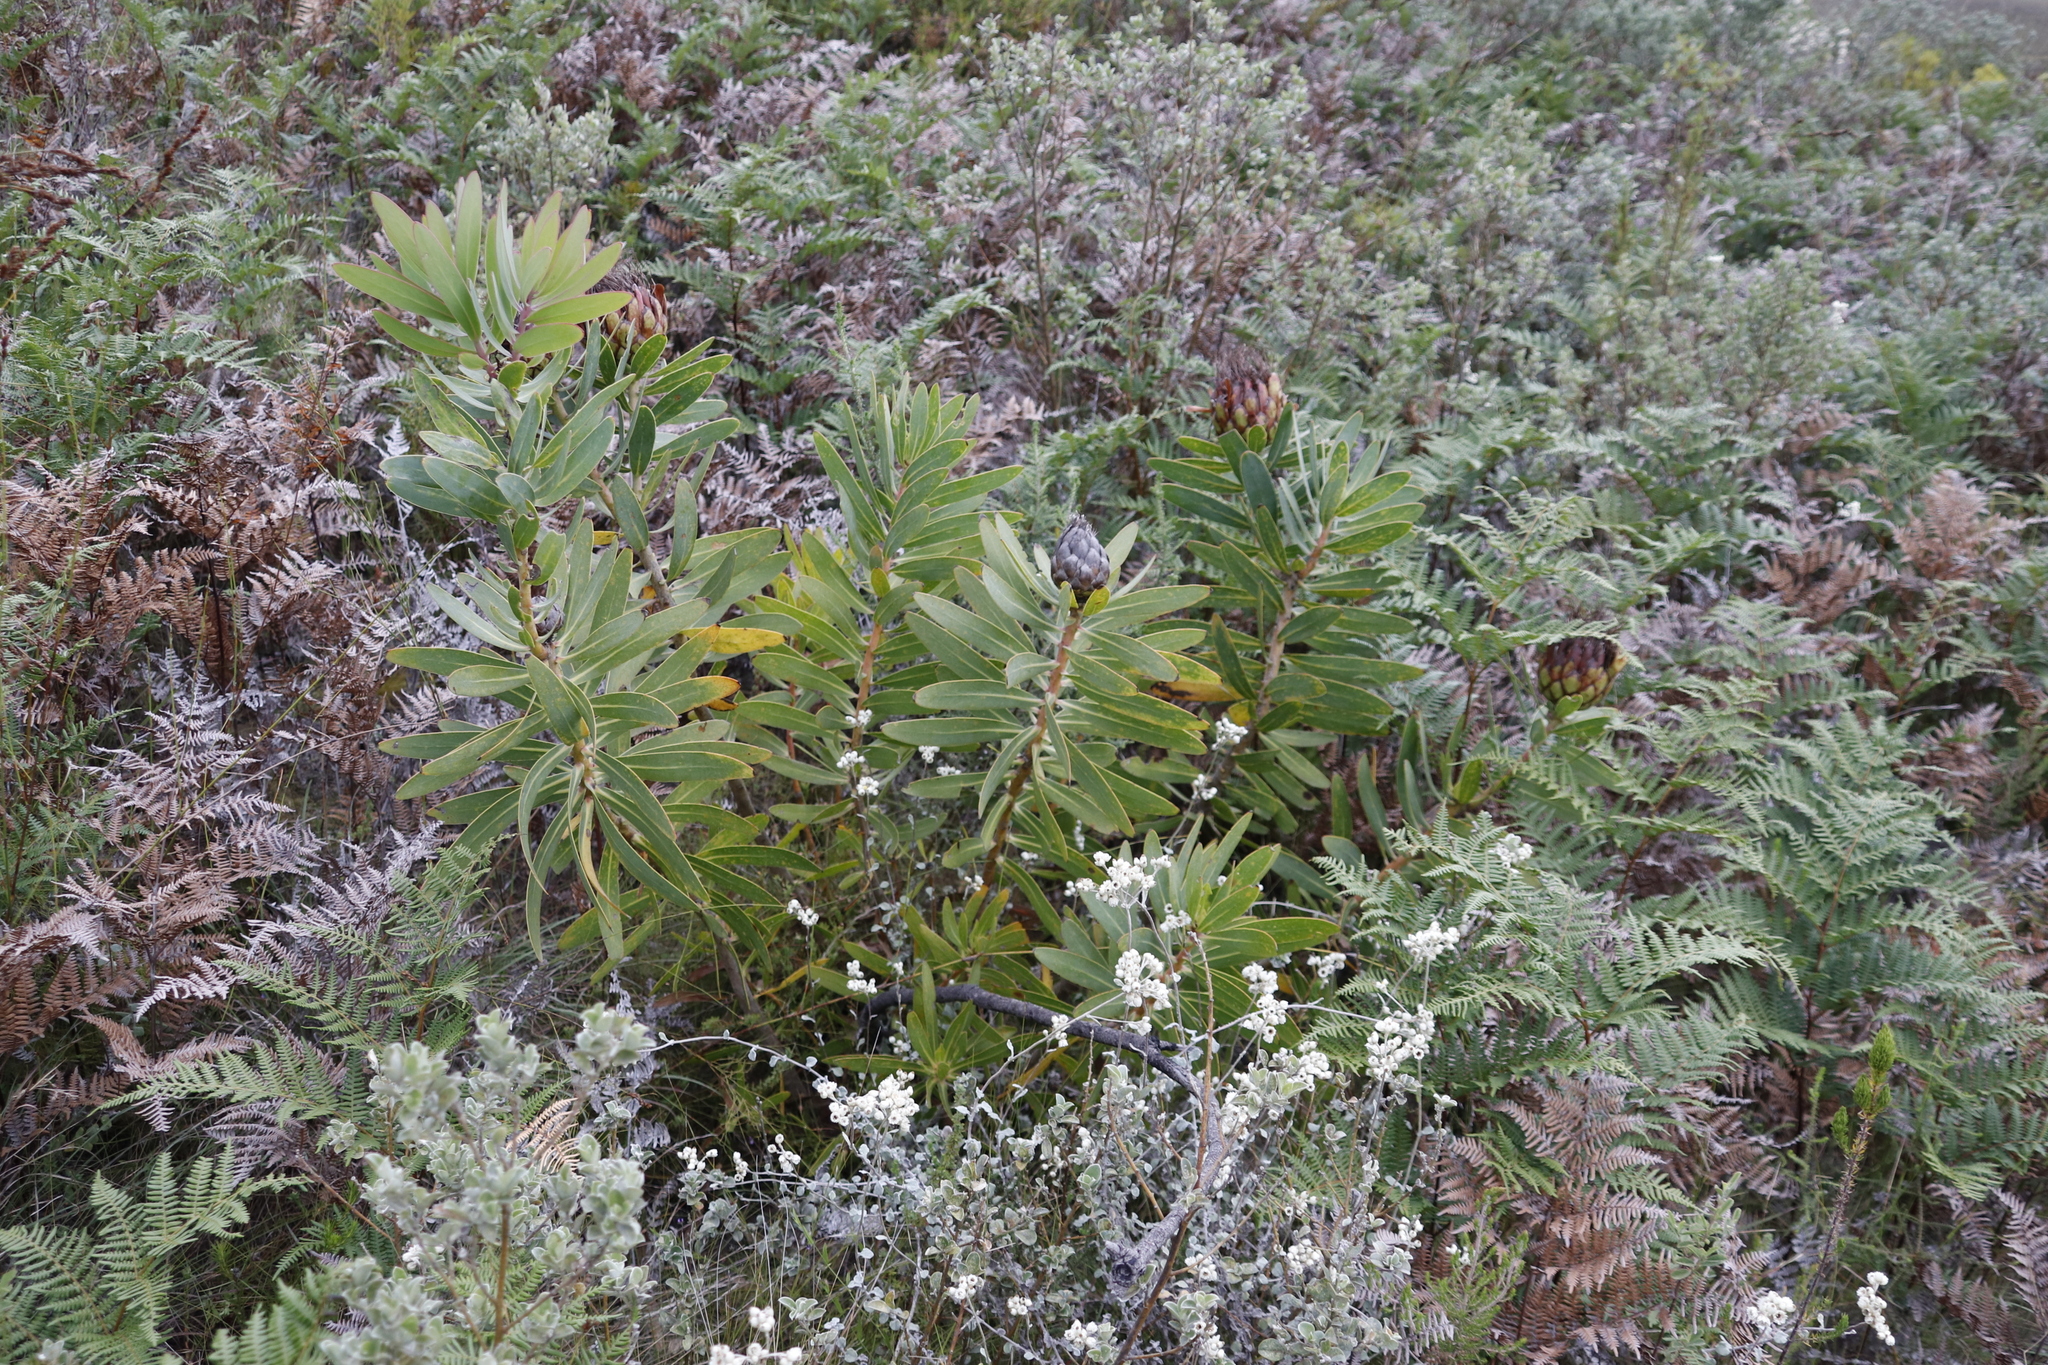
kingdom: Plantae
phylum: Tracheophyta
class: Magnoliopsida
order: Proteales
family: Proteaceae
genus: Protea
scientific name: Protea nitida
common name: Tree protea
